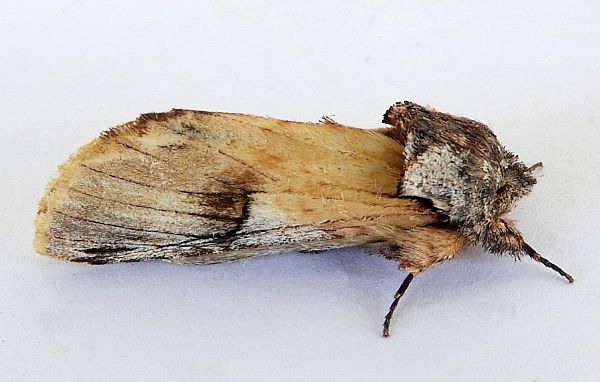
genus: Ianassa
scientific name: Ianassa
